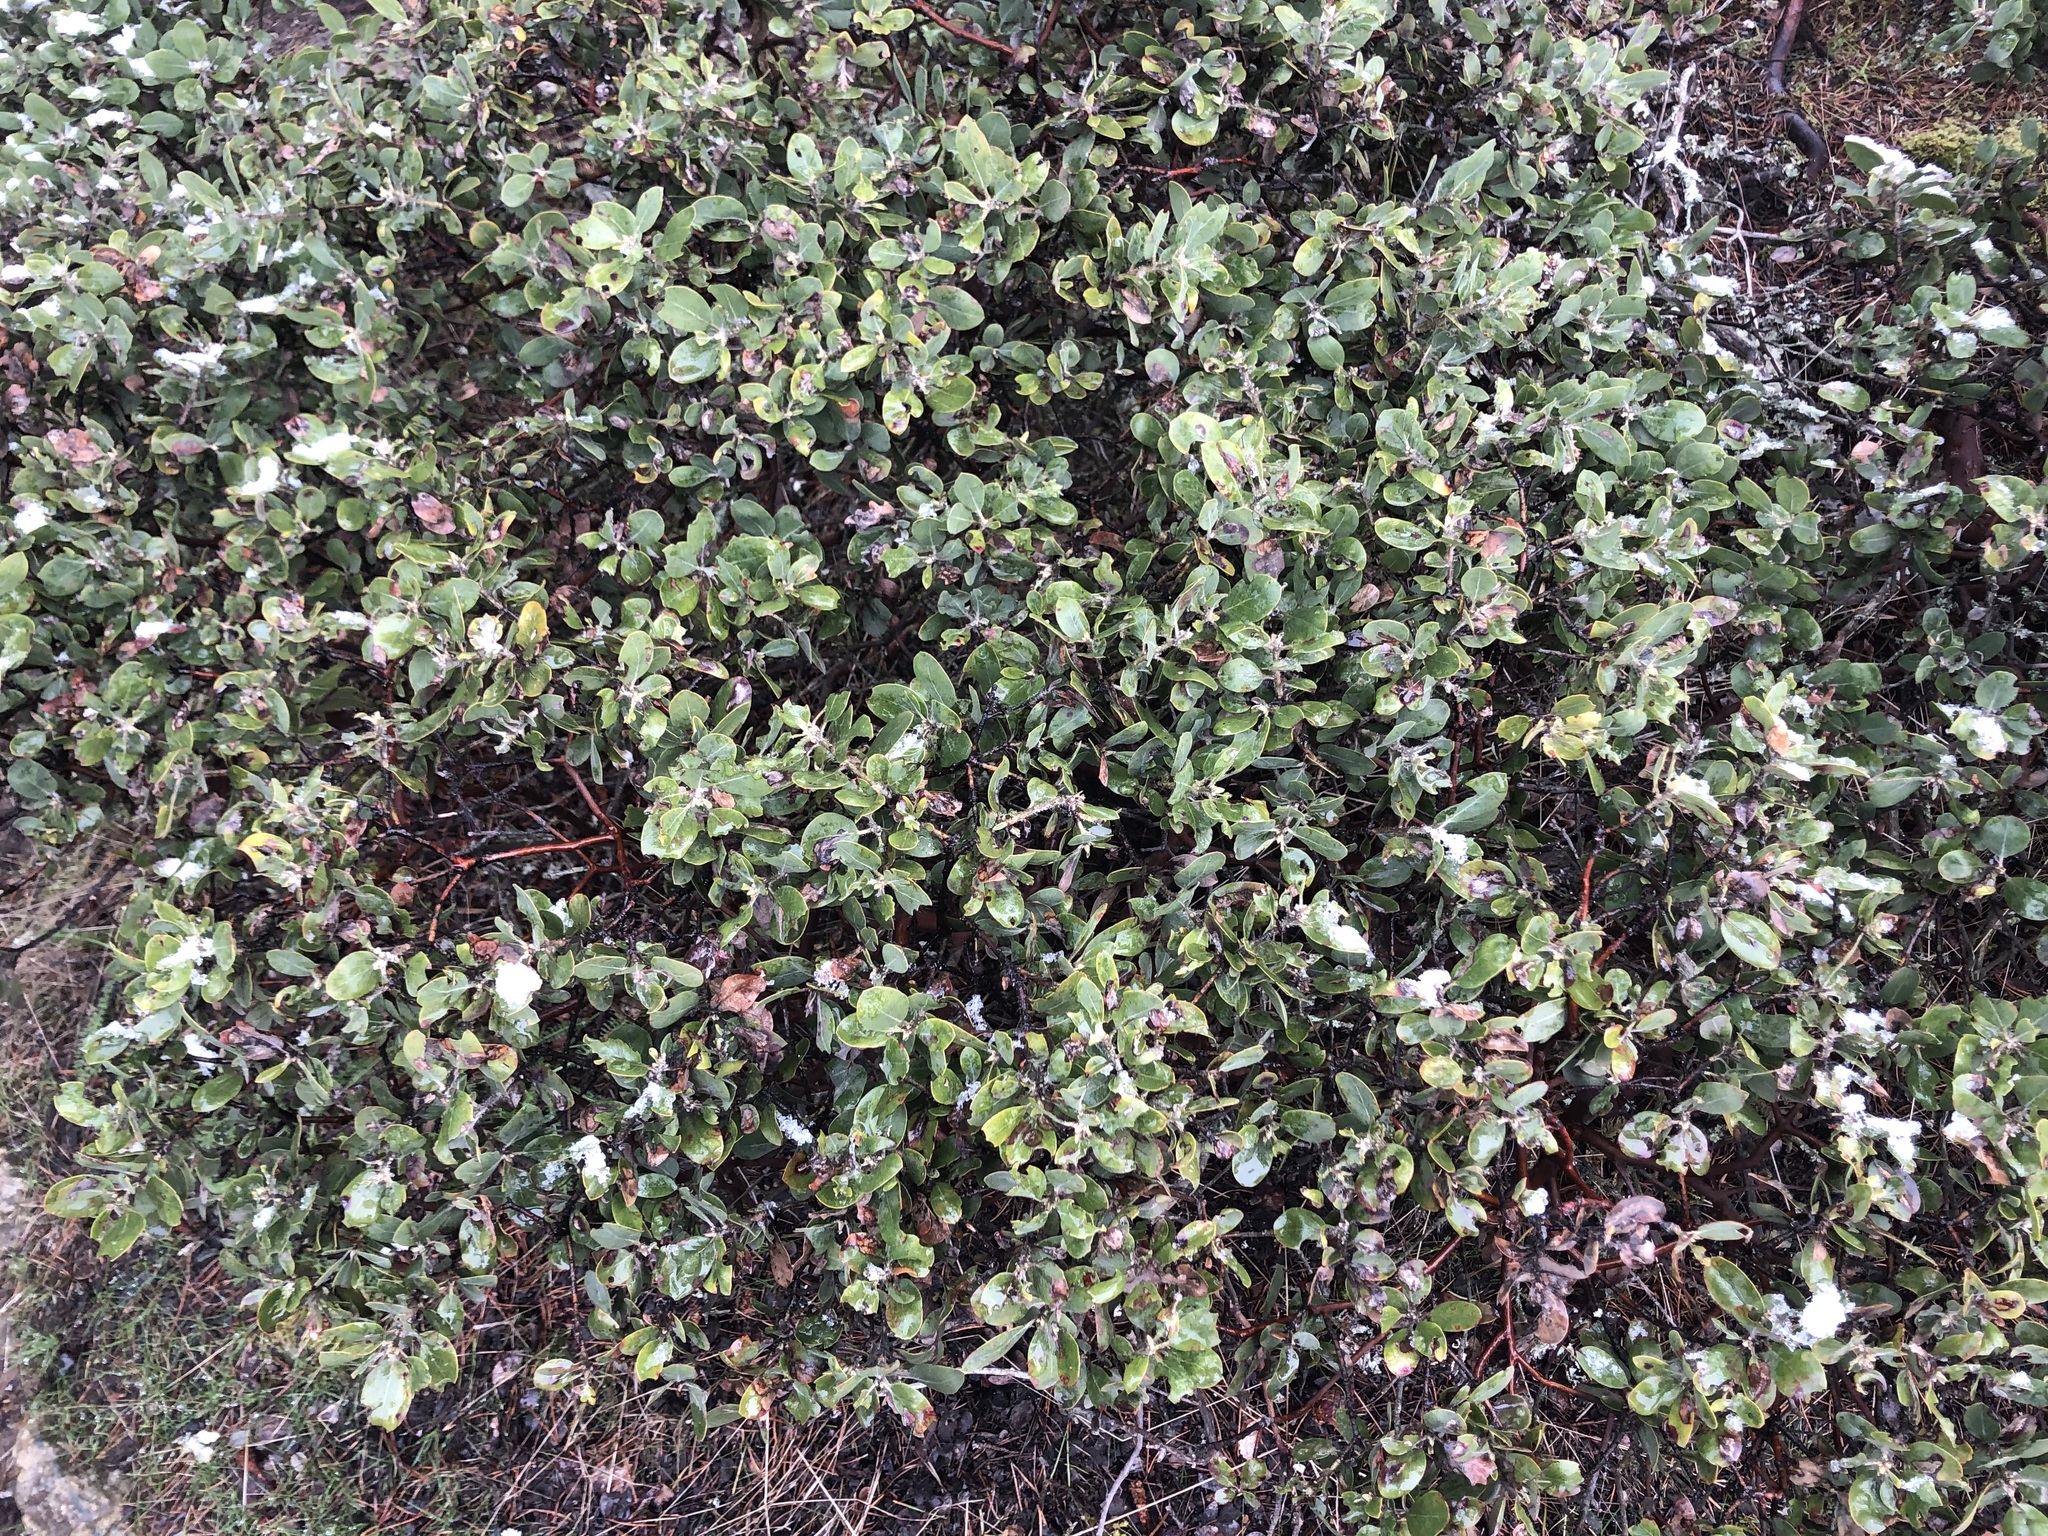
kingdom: Plantae
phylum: Tracheophyta
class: Magnoliopsida
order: Ericales
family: Ericaceae
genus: Arctostaphylos
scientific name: Arctostaphylos media
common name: Hybrid manzanita
